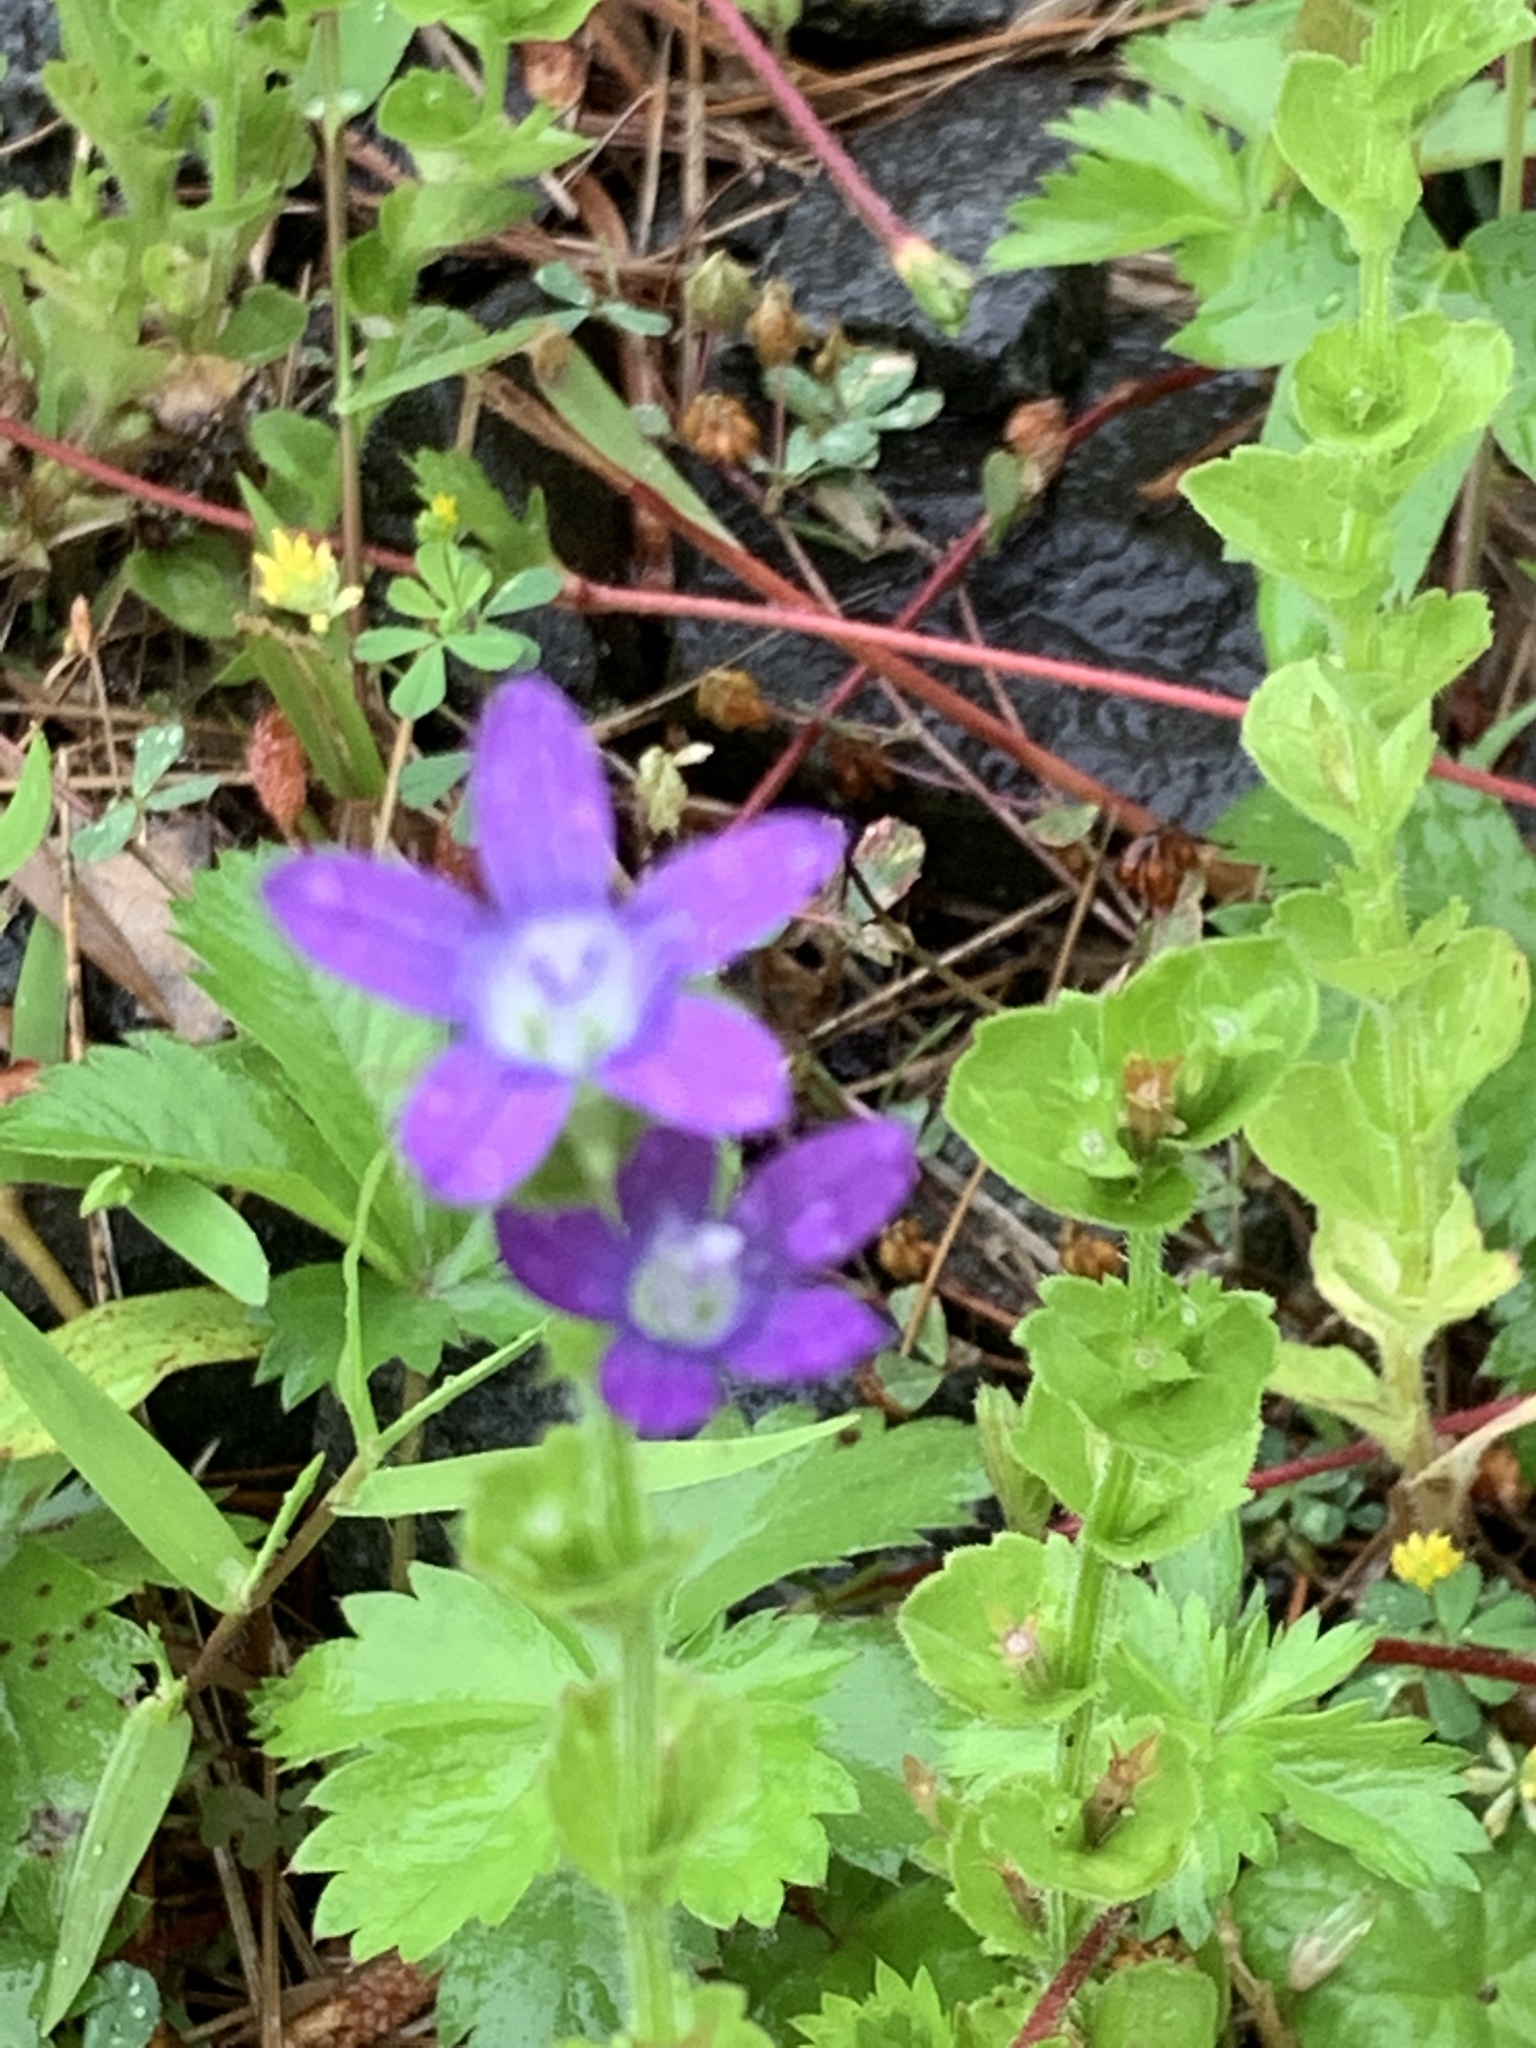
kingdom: Plantae
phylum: Tracheophyta
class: Magnoliopsida
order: Asterales
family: Campanulaceae
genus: Triodanis
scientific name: Triodanis perfoliata
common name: Clasping venus' looking-glass
